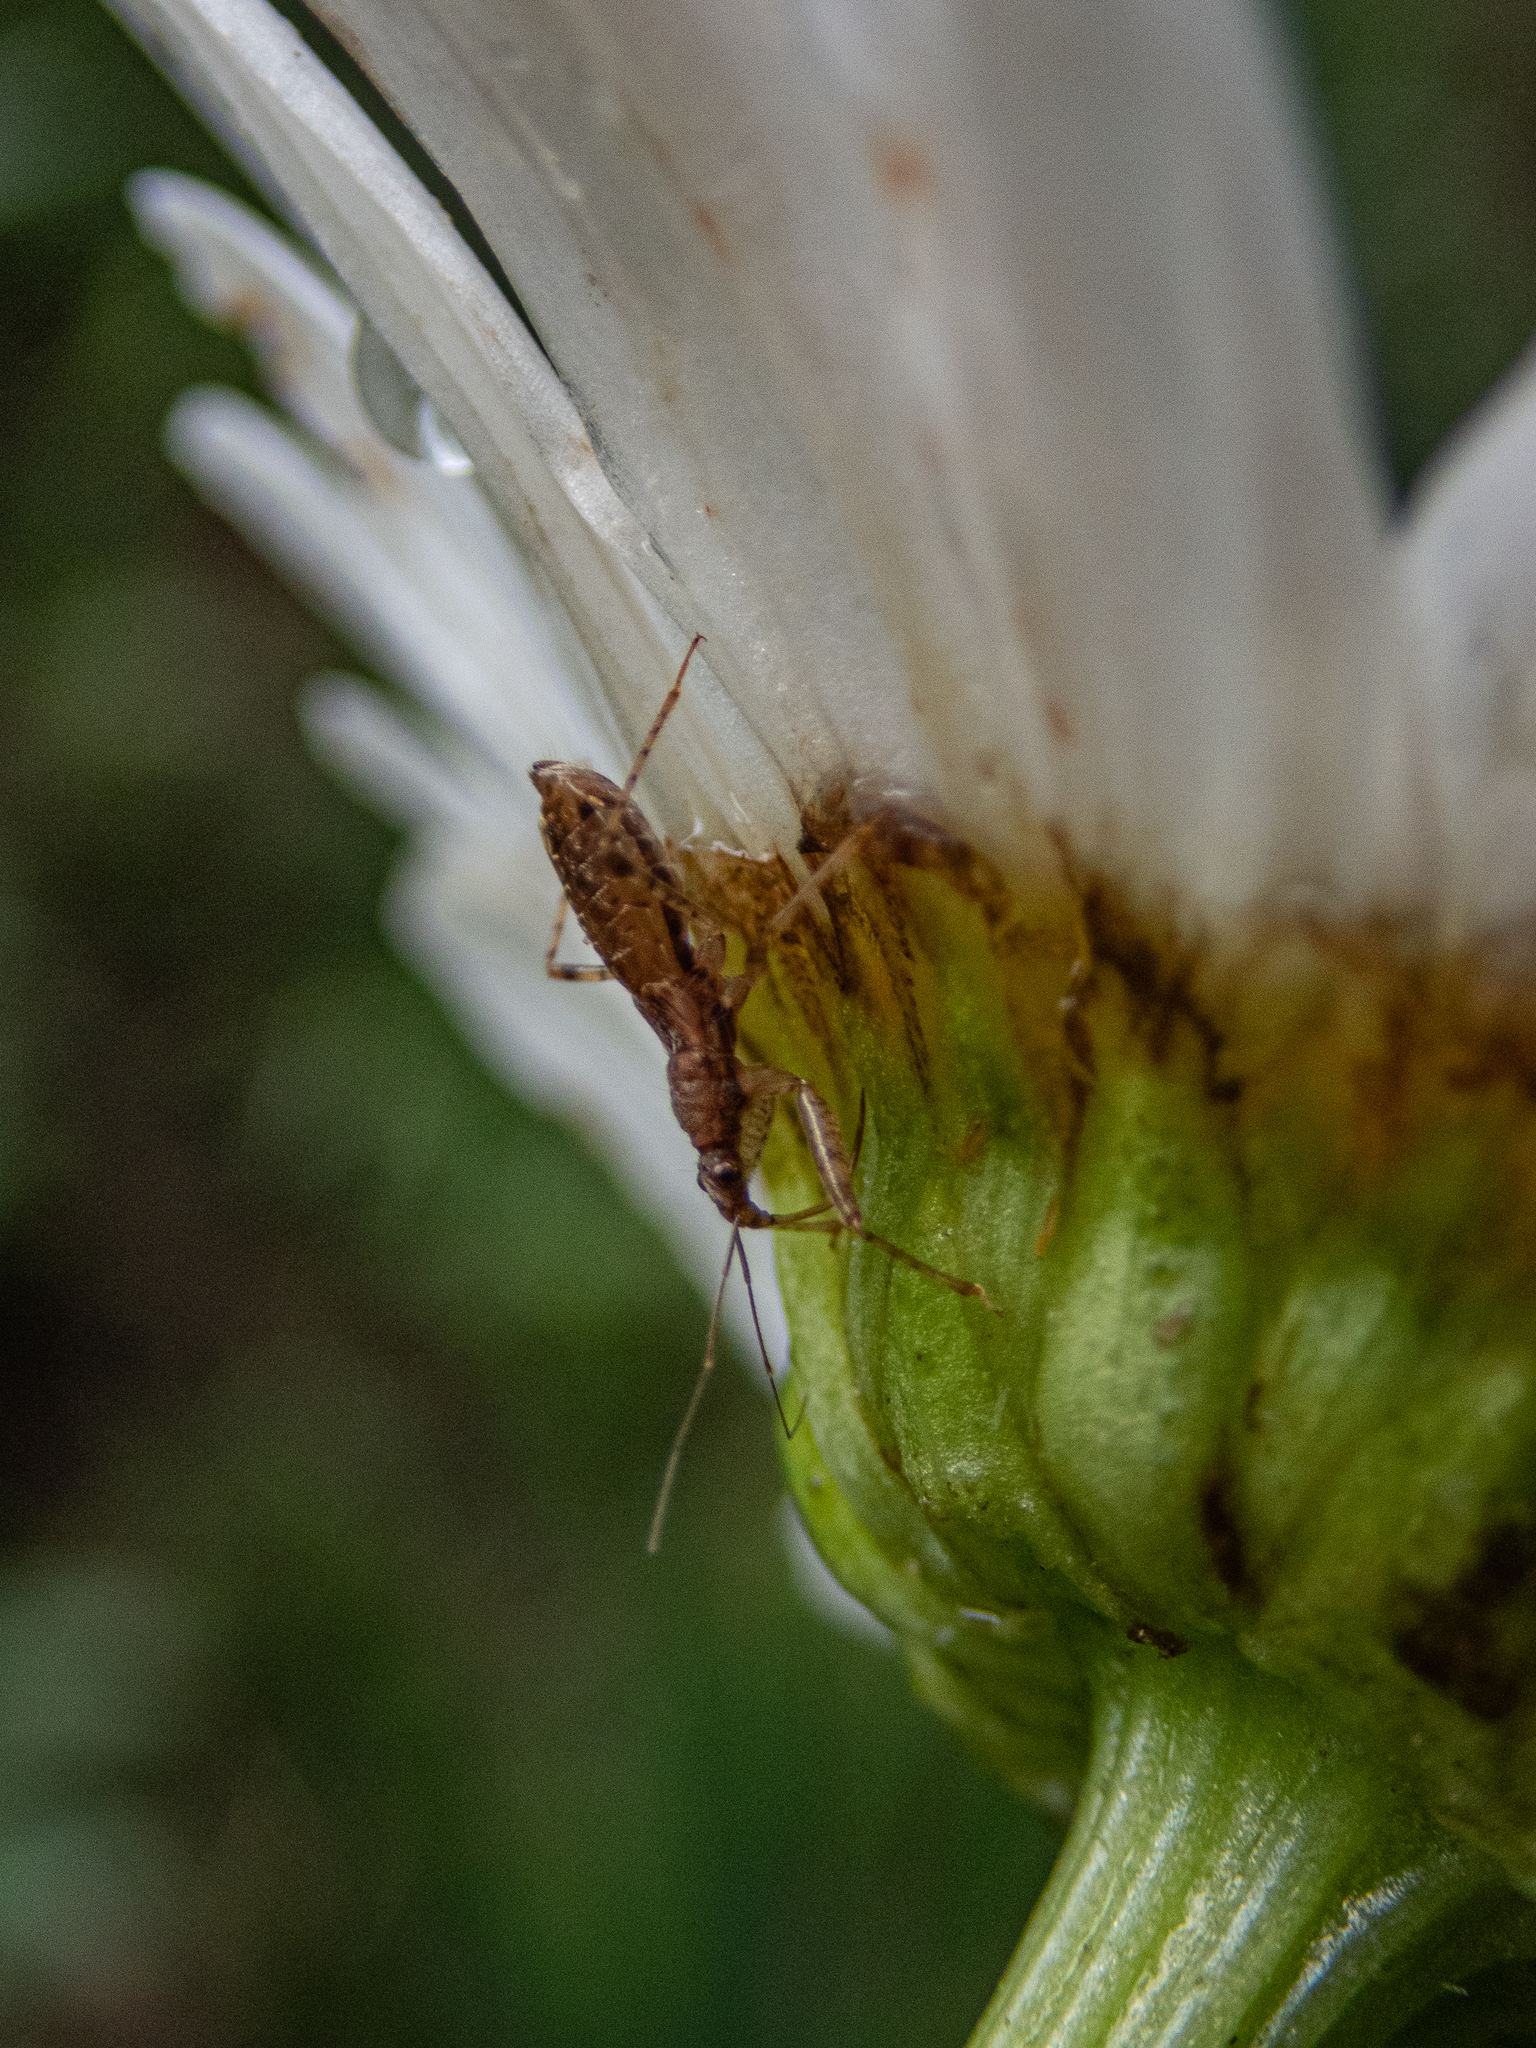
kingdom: Animalia
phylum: Arthropoda
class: Insecta
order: Hemiptera
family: Nabidae
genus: Hoplistoscelis
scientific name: Hoplistoscelis pallescens
